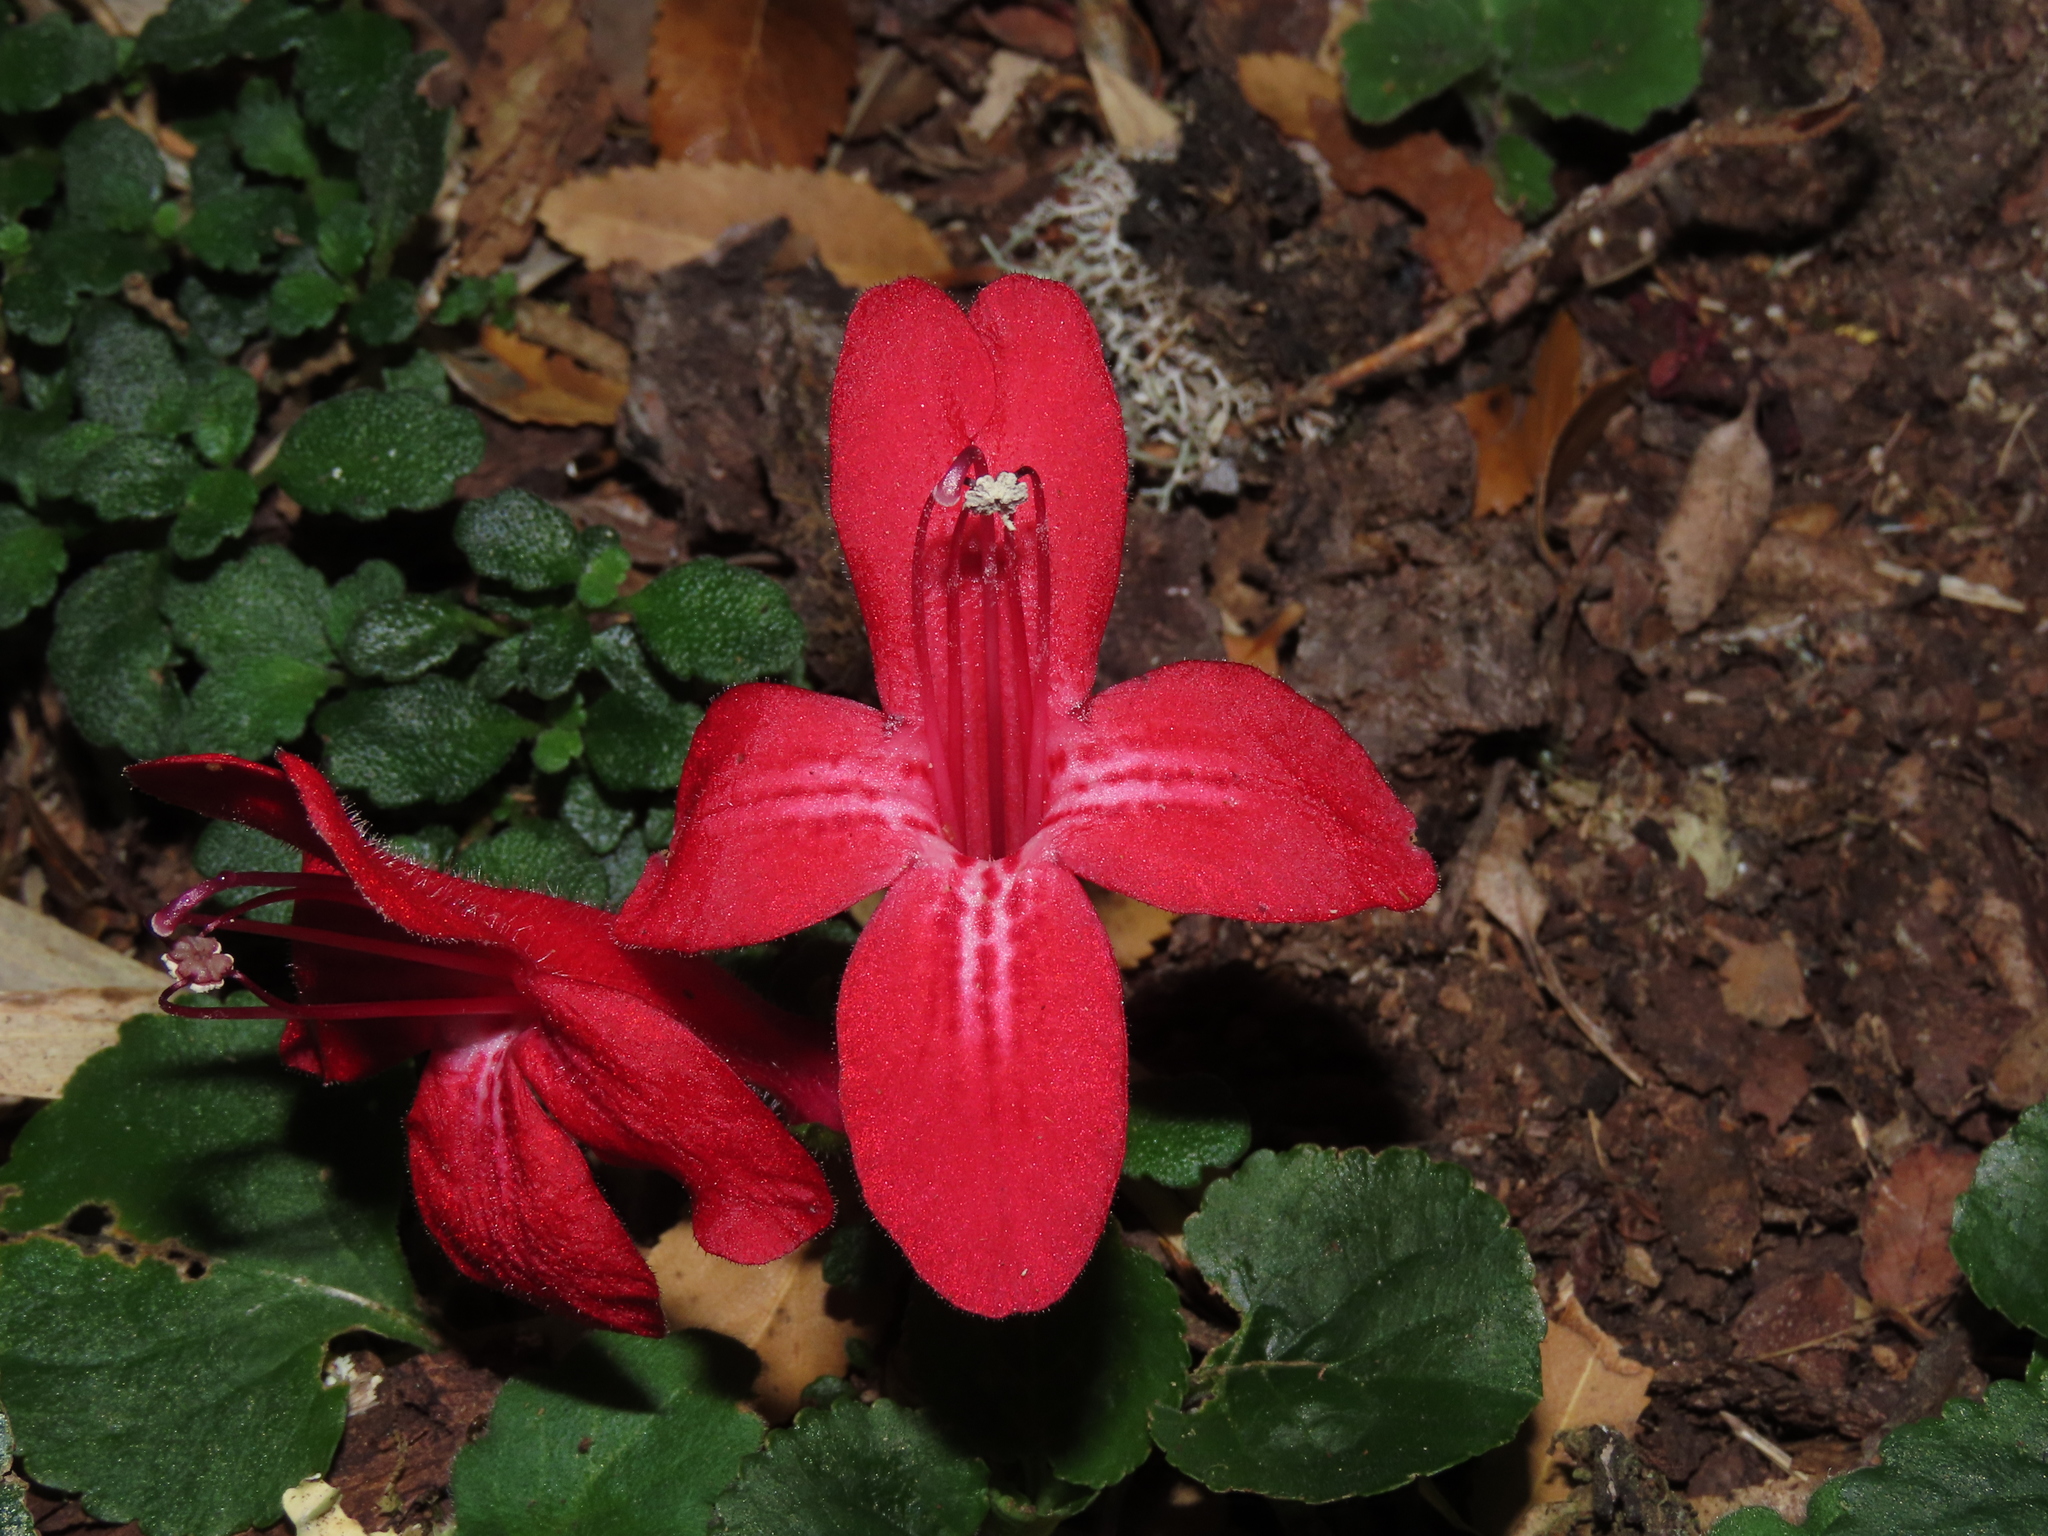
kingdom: Plantae
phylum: Tracheophyta
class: Magnoliopsida
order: Lamiales
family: Gesneriaceae
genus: Asteranthera
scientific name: Asteranthera ovata
